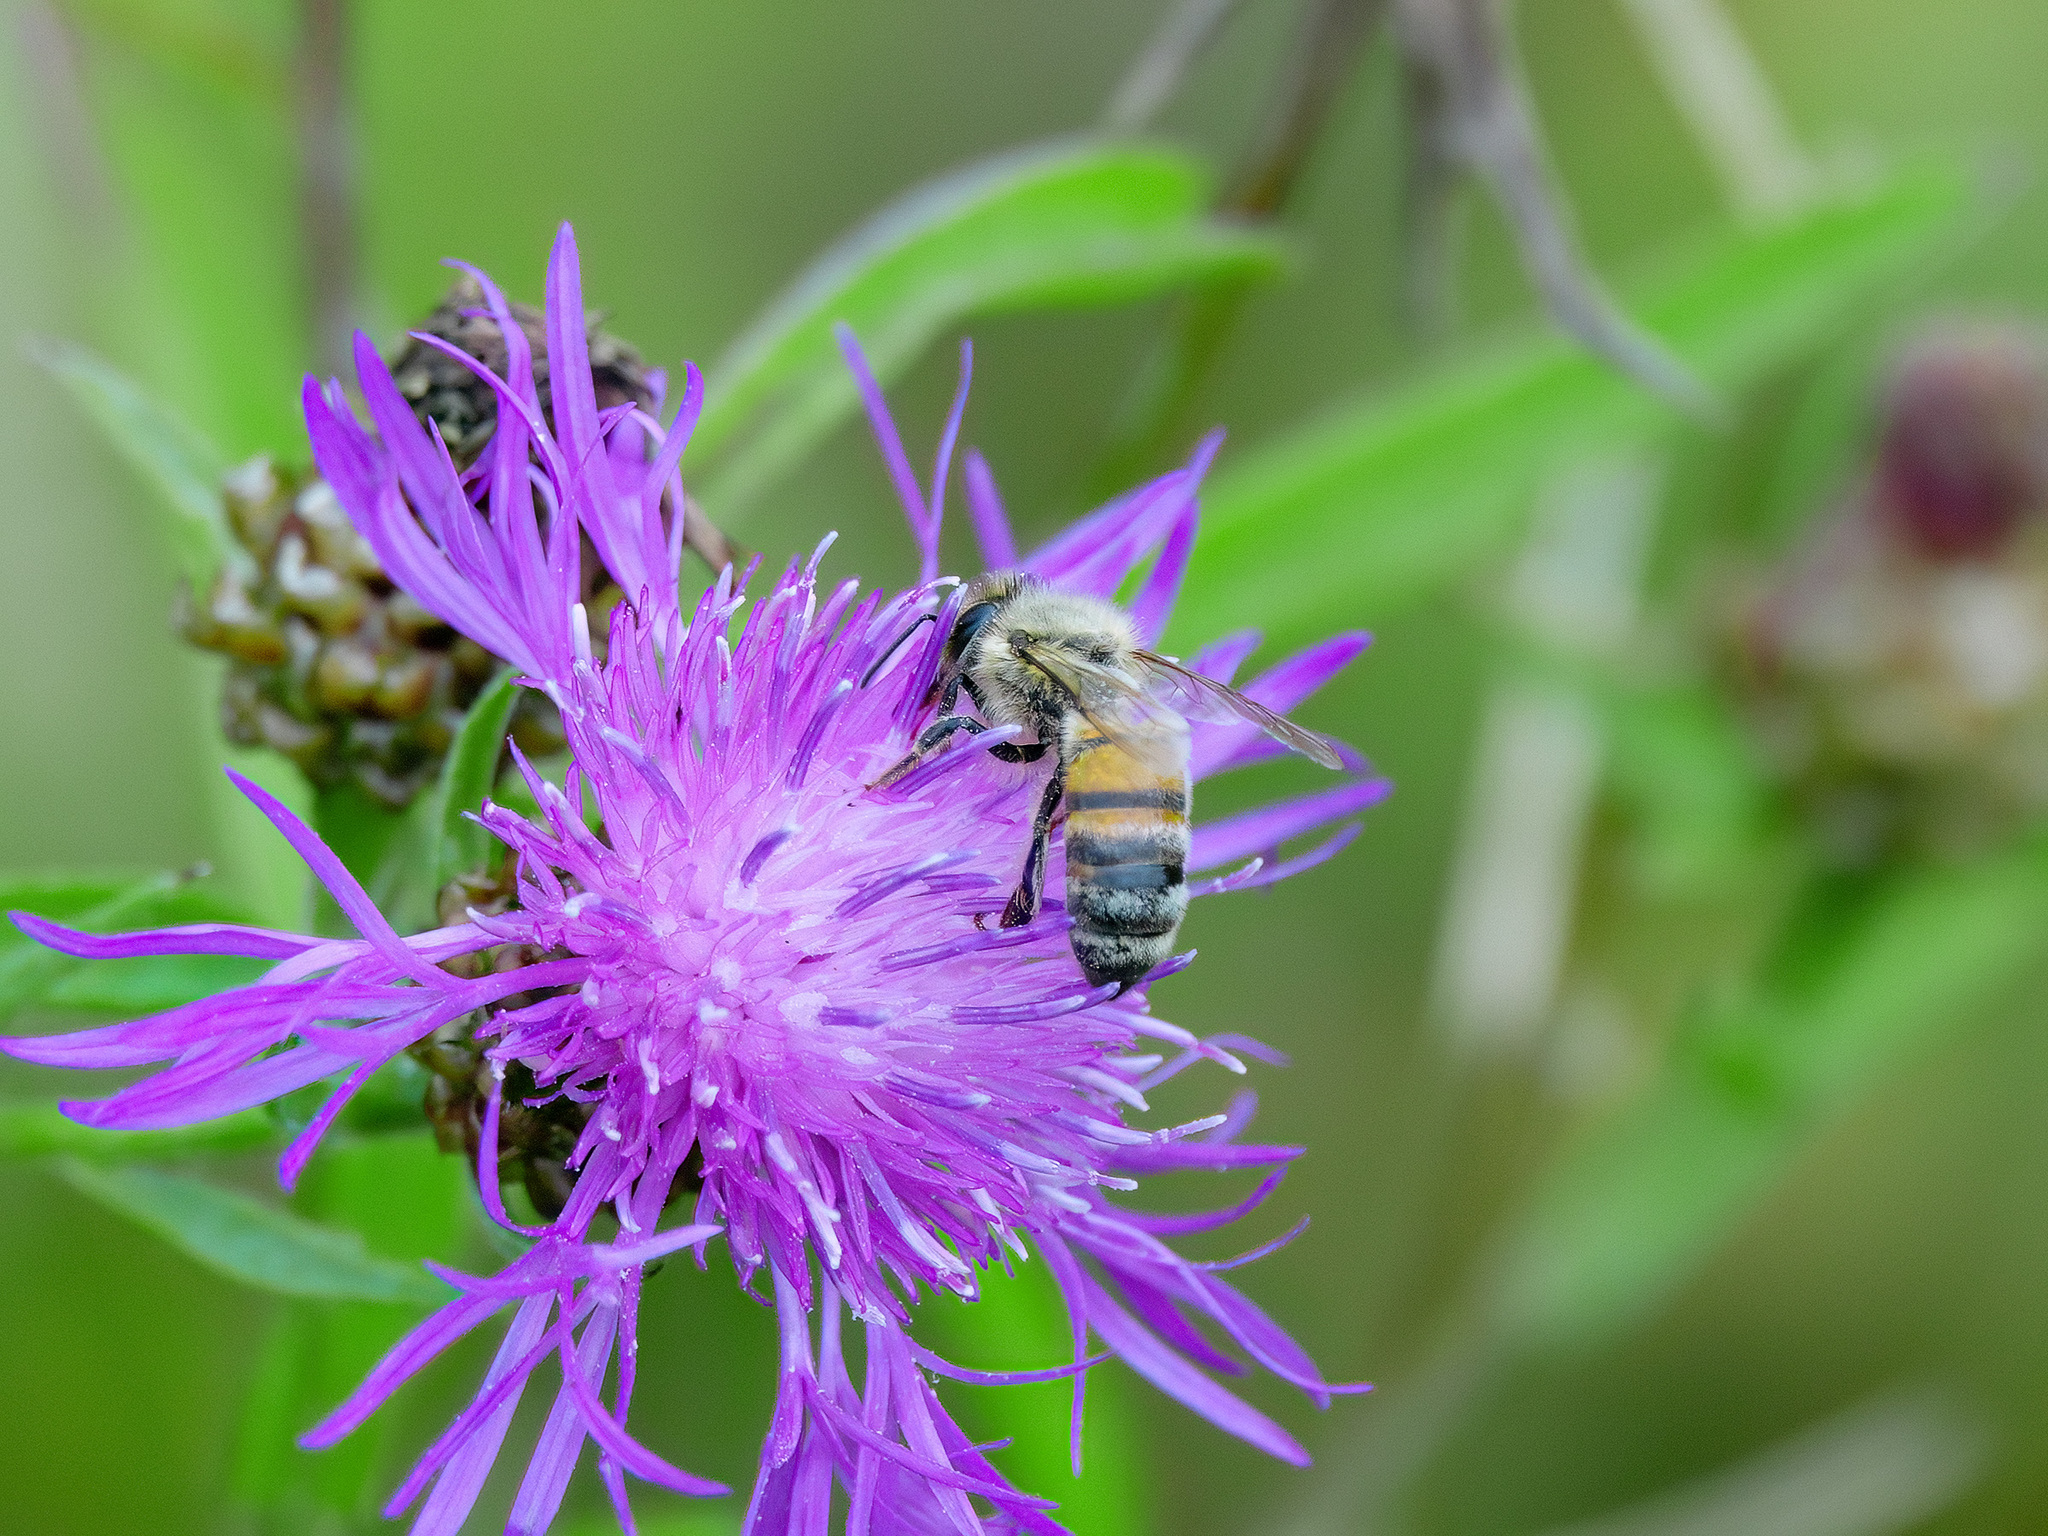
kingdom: Animalia
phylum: Arthropoda
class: Insecta
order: Hymenoptera
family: Apidae
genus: Apis
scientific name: Apis mellifera
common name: Honey bee
